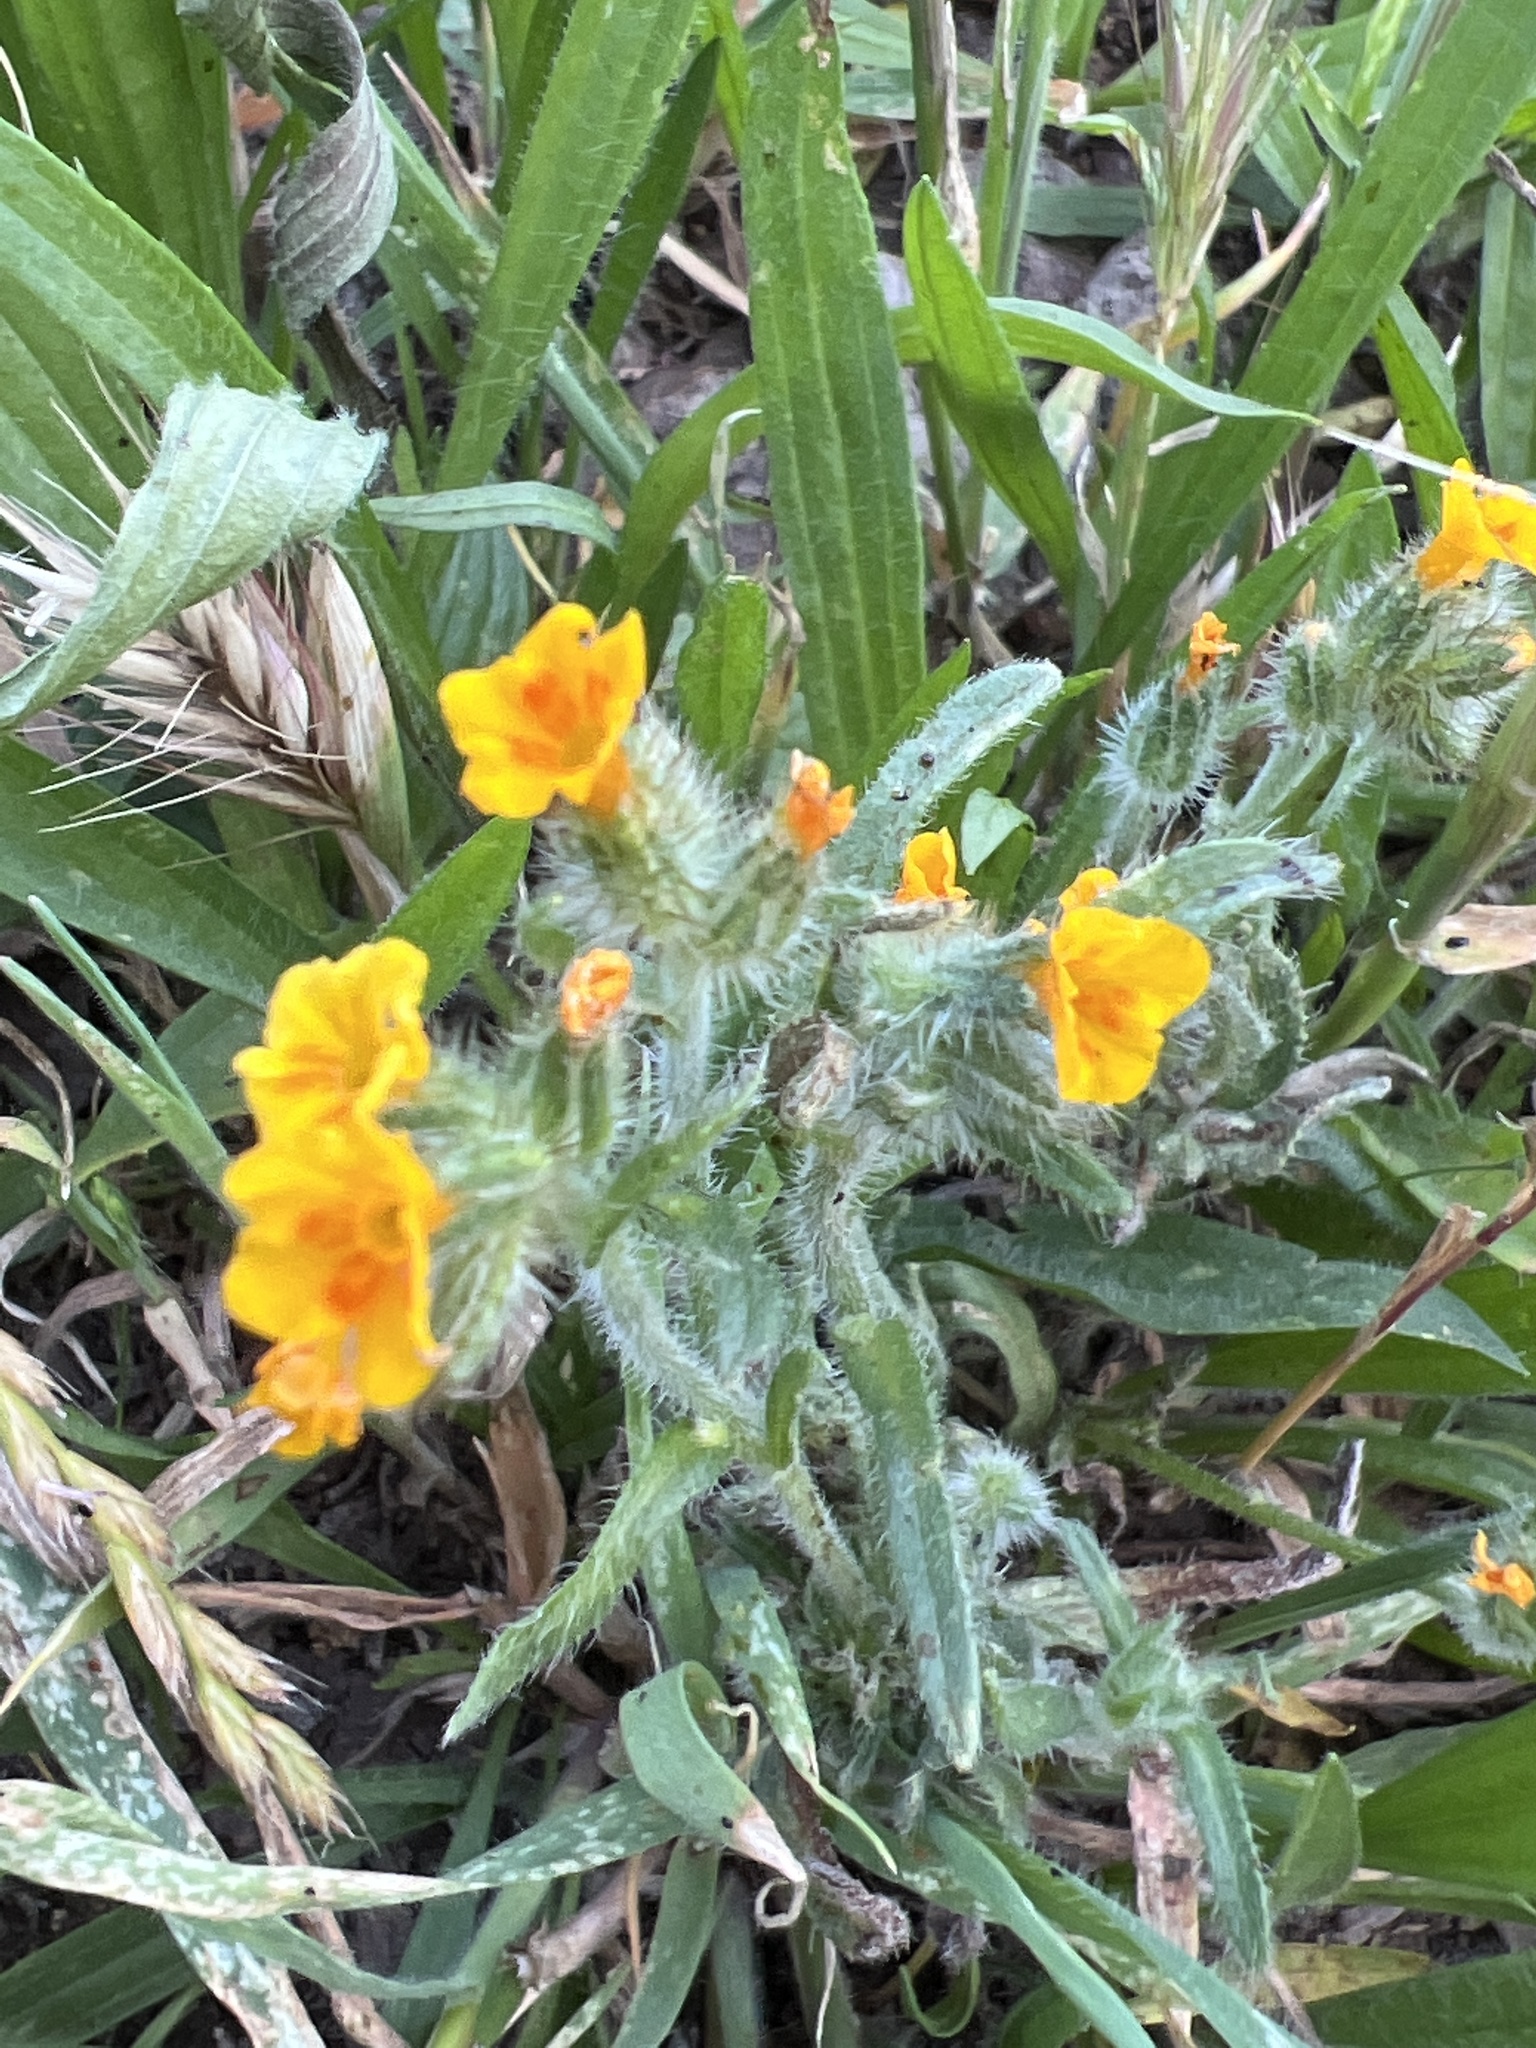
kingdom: Plantae
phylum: Tracheophyta
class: Magnoliopsida
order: Boraginales
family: Boraginaceae
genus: Amsinckia
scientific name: Amsinckia menziesii
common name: Menzies' fiddleneck
